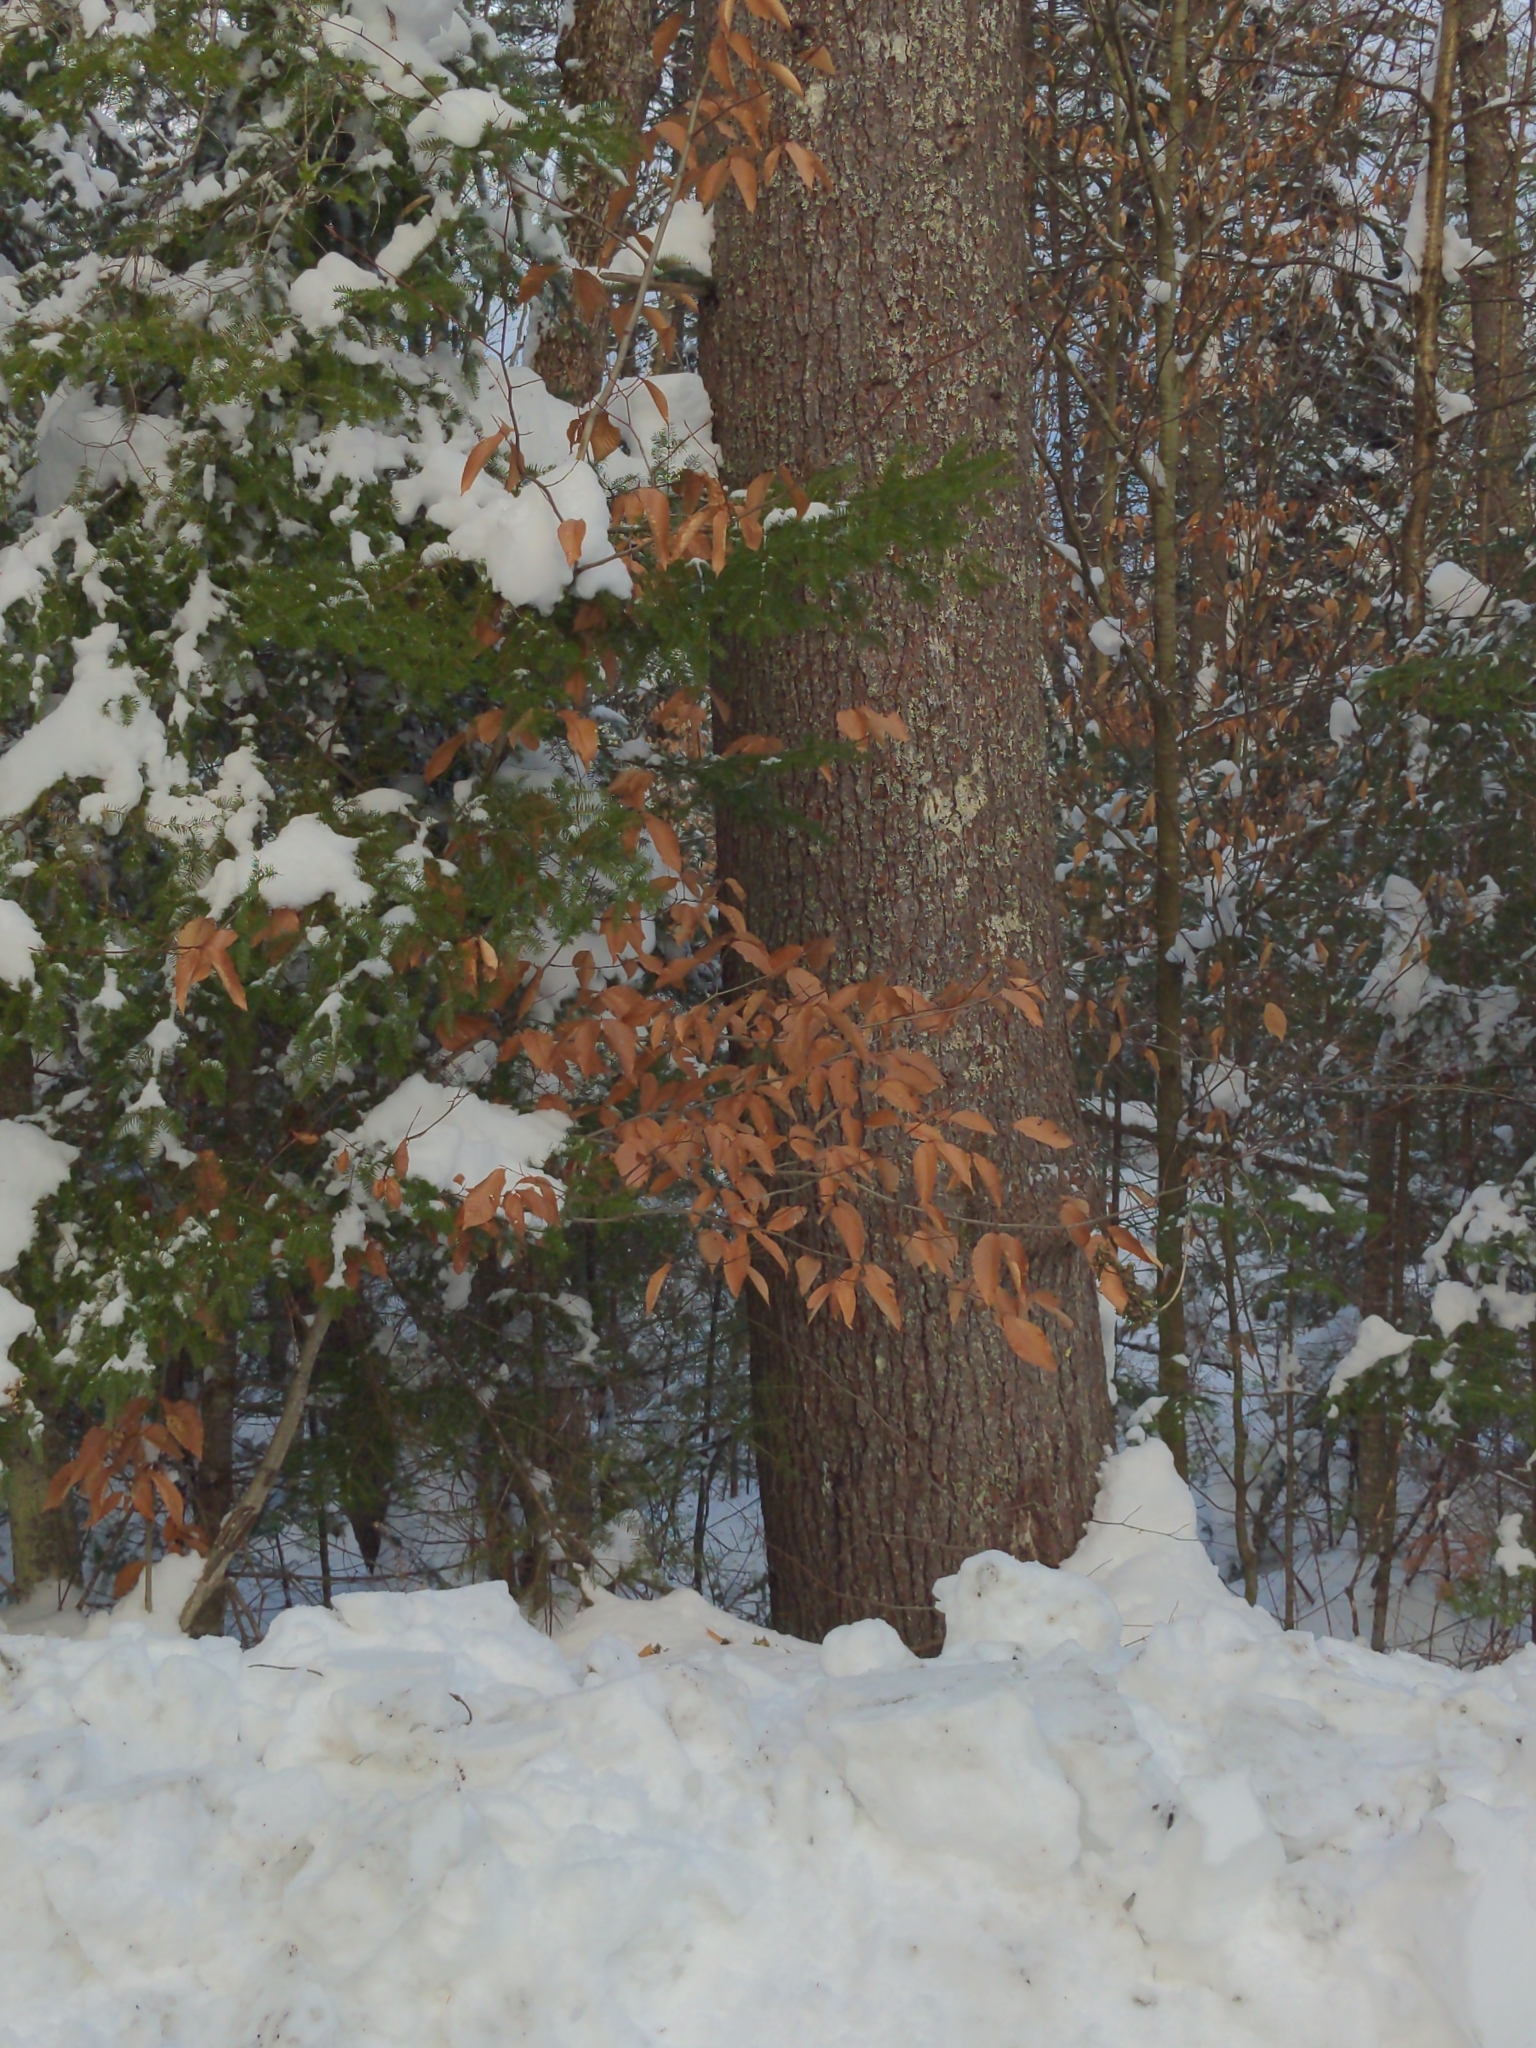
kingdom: Plantae
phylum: Tracheophyta
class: Magnoliopsida
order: Fagales
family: Fagaceae
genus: Fagus
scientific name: Fagus grandifolia
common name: American beech
